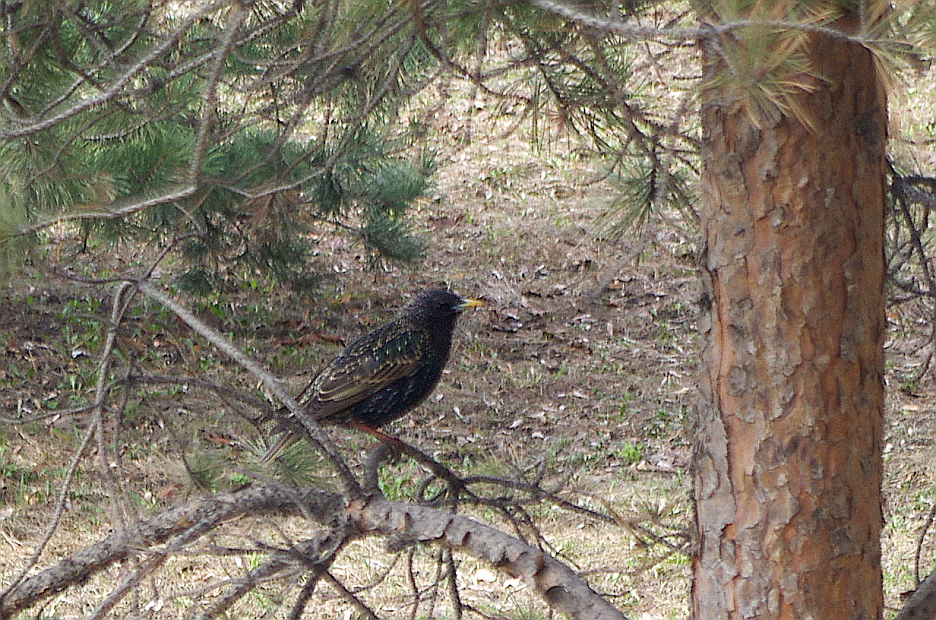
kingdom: Animalia
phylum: Chordata
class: Aves
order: Passeriformes
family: Sturnidae
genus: Sturnus
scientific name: Sturnus vulgaris
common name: Common starling
